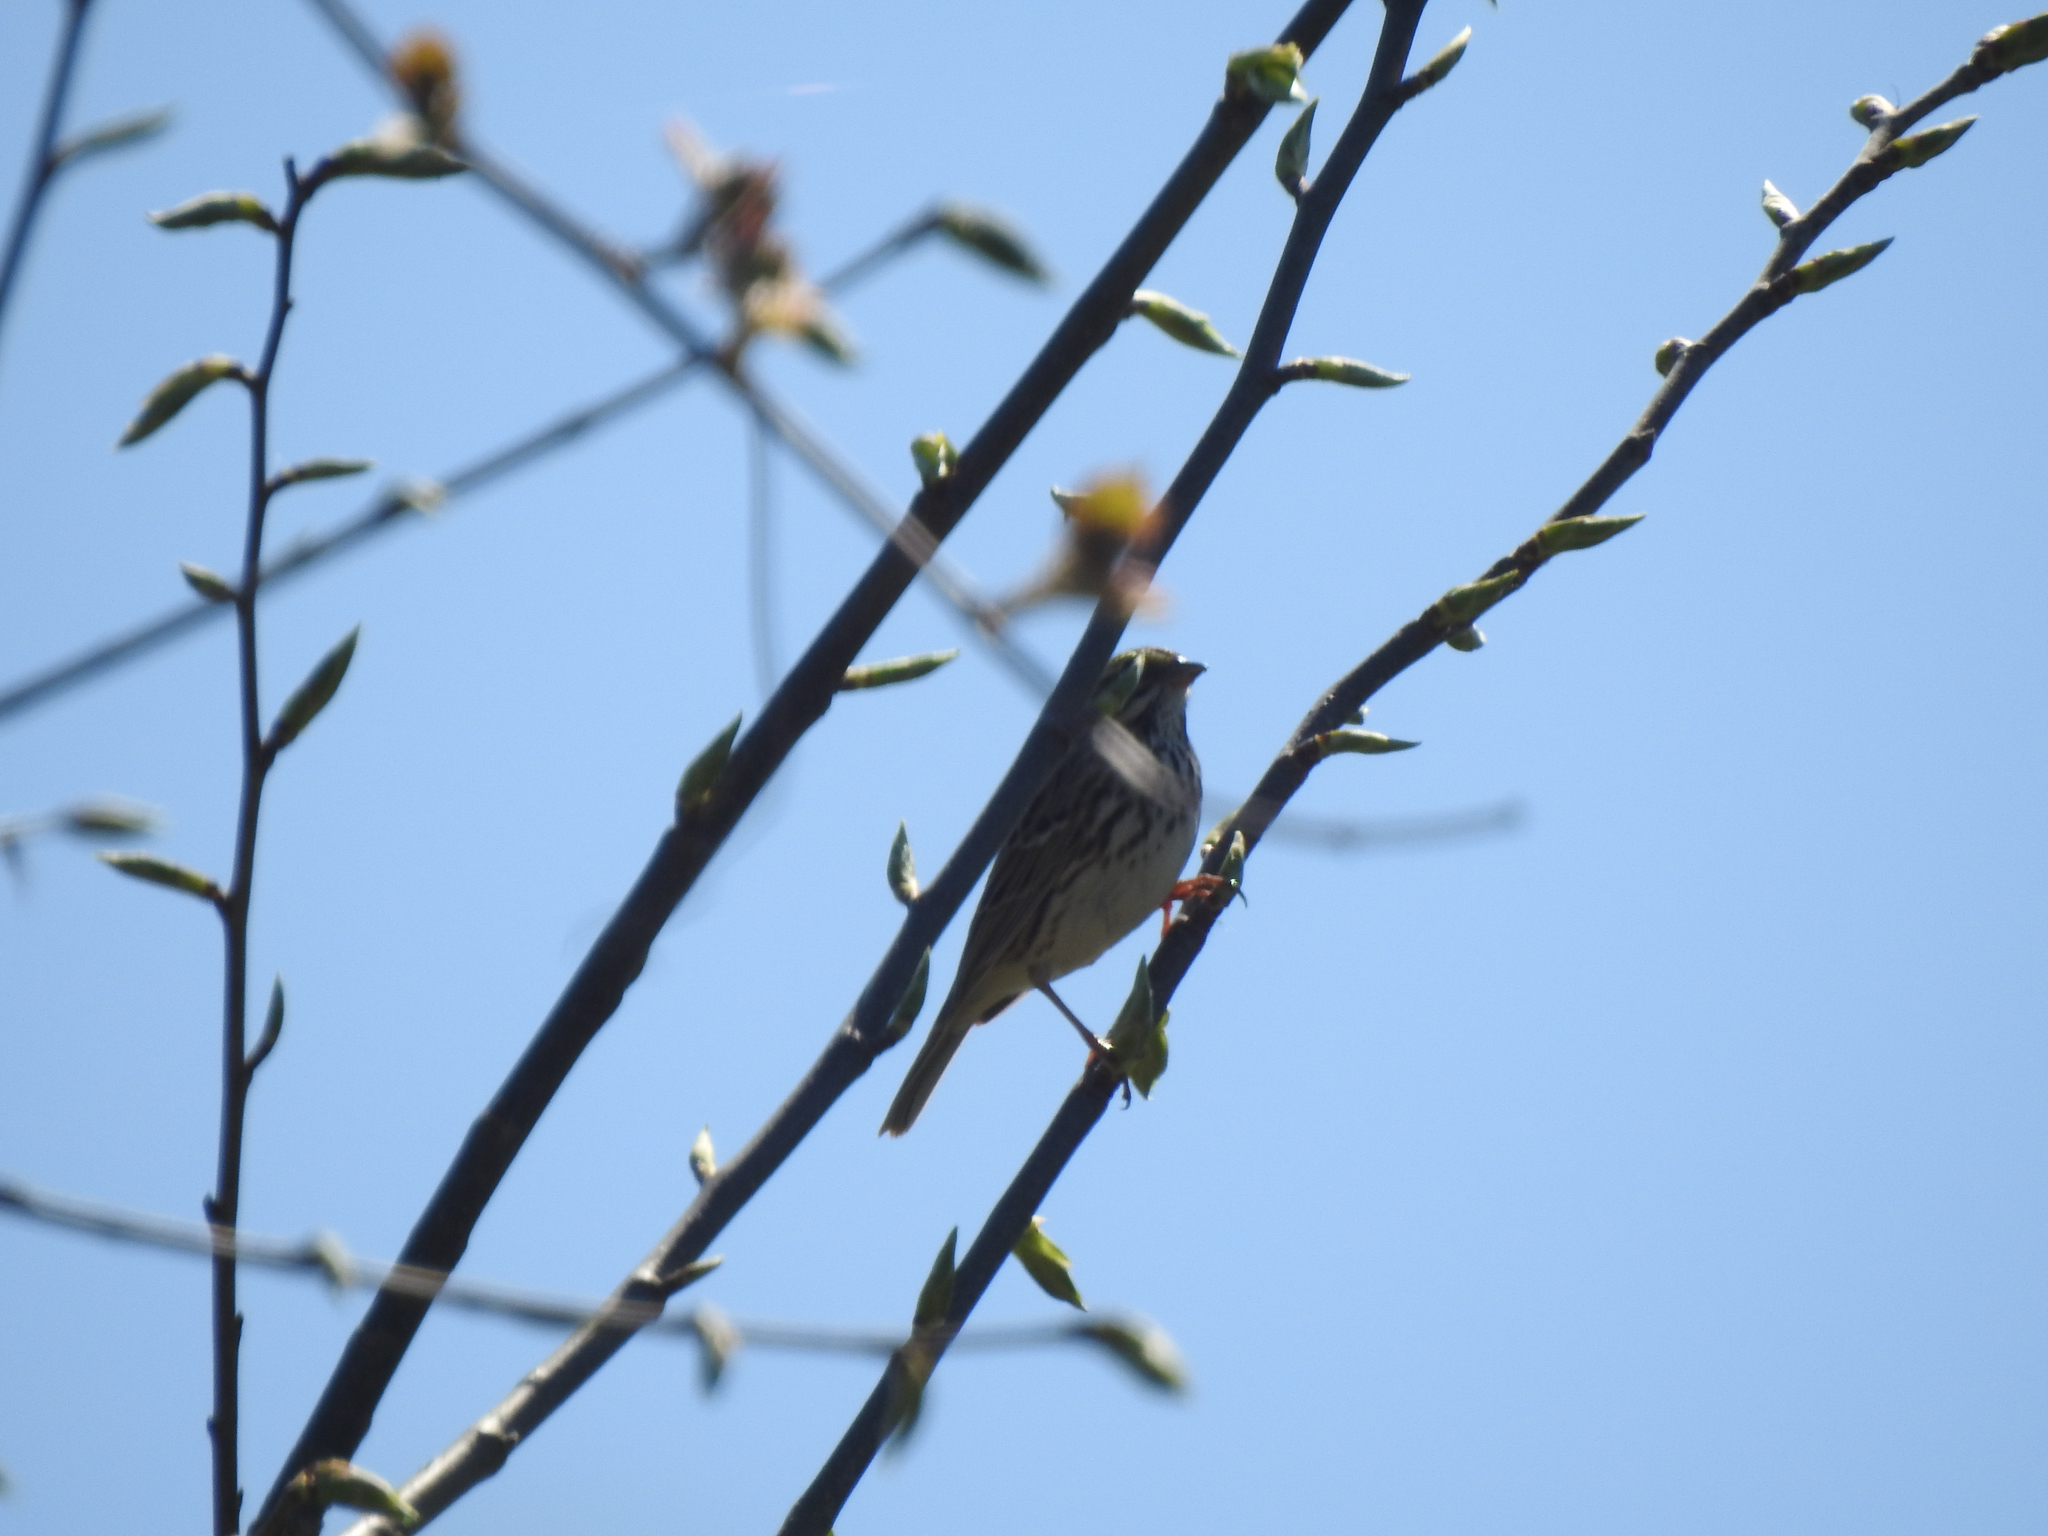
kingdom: Animalia
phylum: Chordata
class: Aves
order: Passeriformes
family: Passerellidae
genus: Passerculus
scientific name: Passerculus sandwichensis
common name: Savannah sparrow
